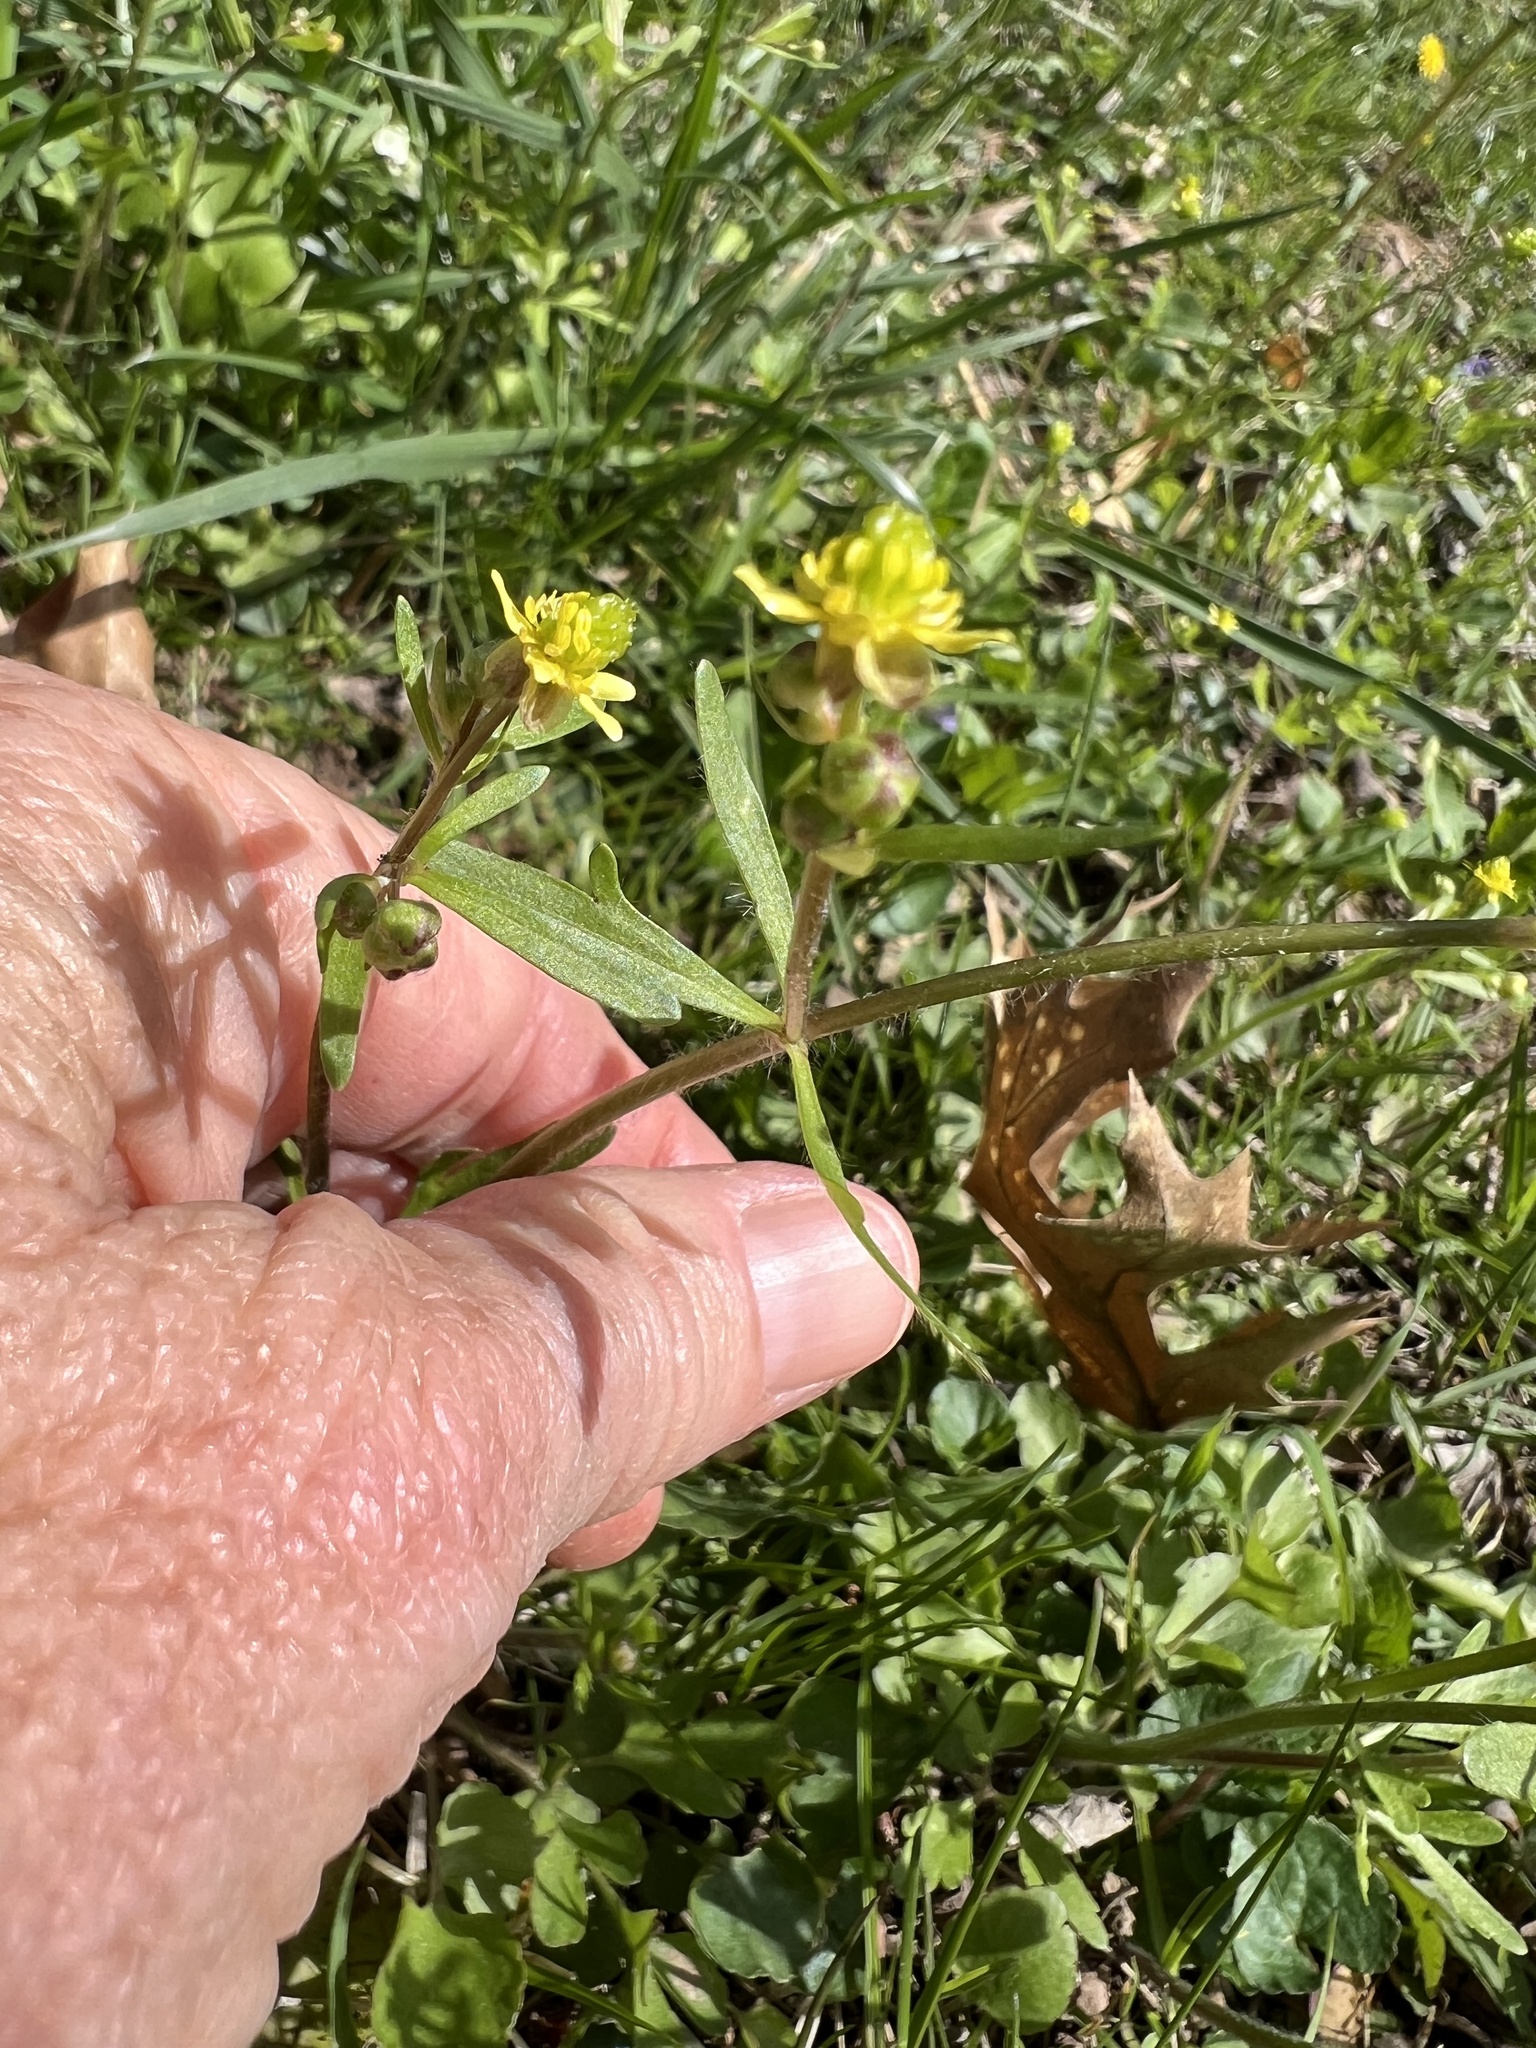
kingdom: Plantae
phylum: Tracheophyta
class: Magnoliopsida
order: Ranunculales
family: Ranunculaceae
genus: Ranunculus
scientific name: Ranunculus micranthus
